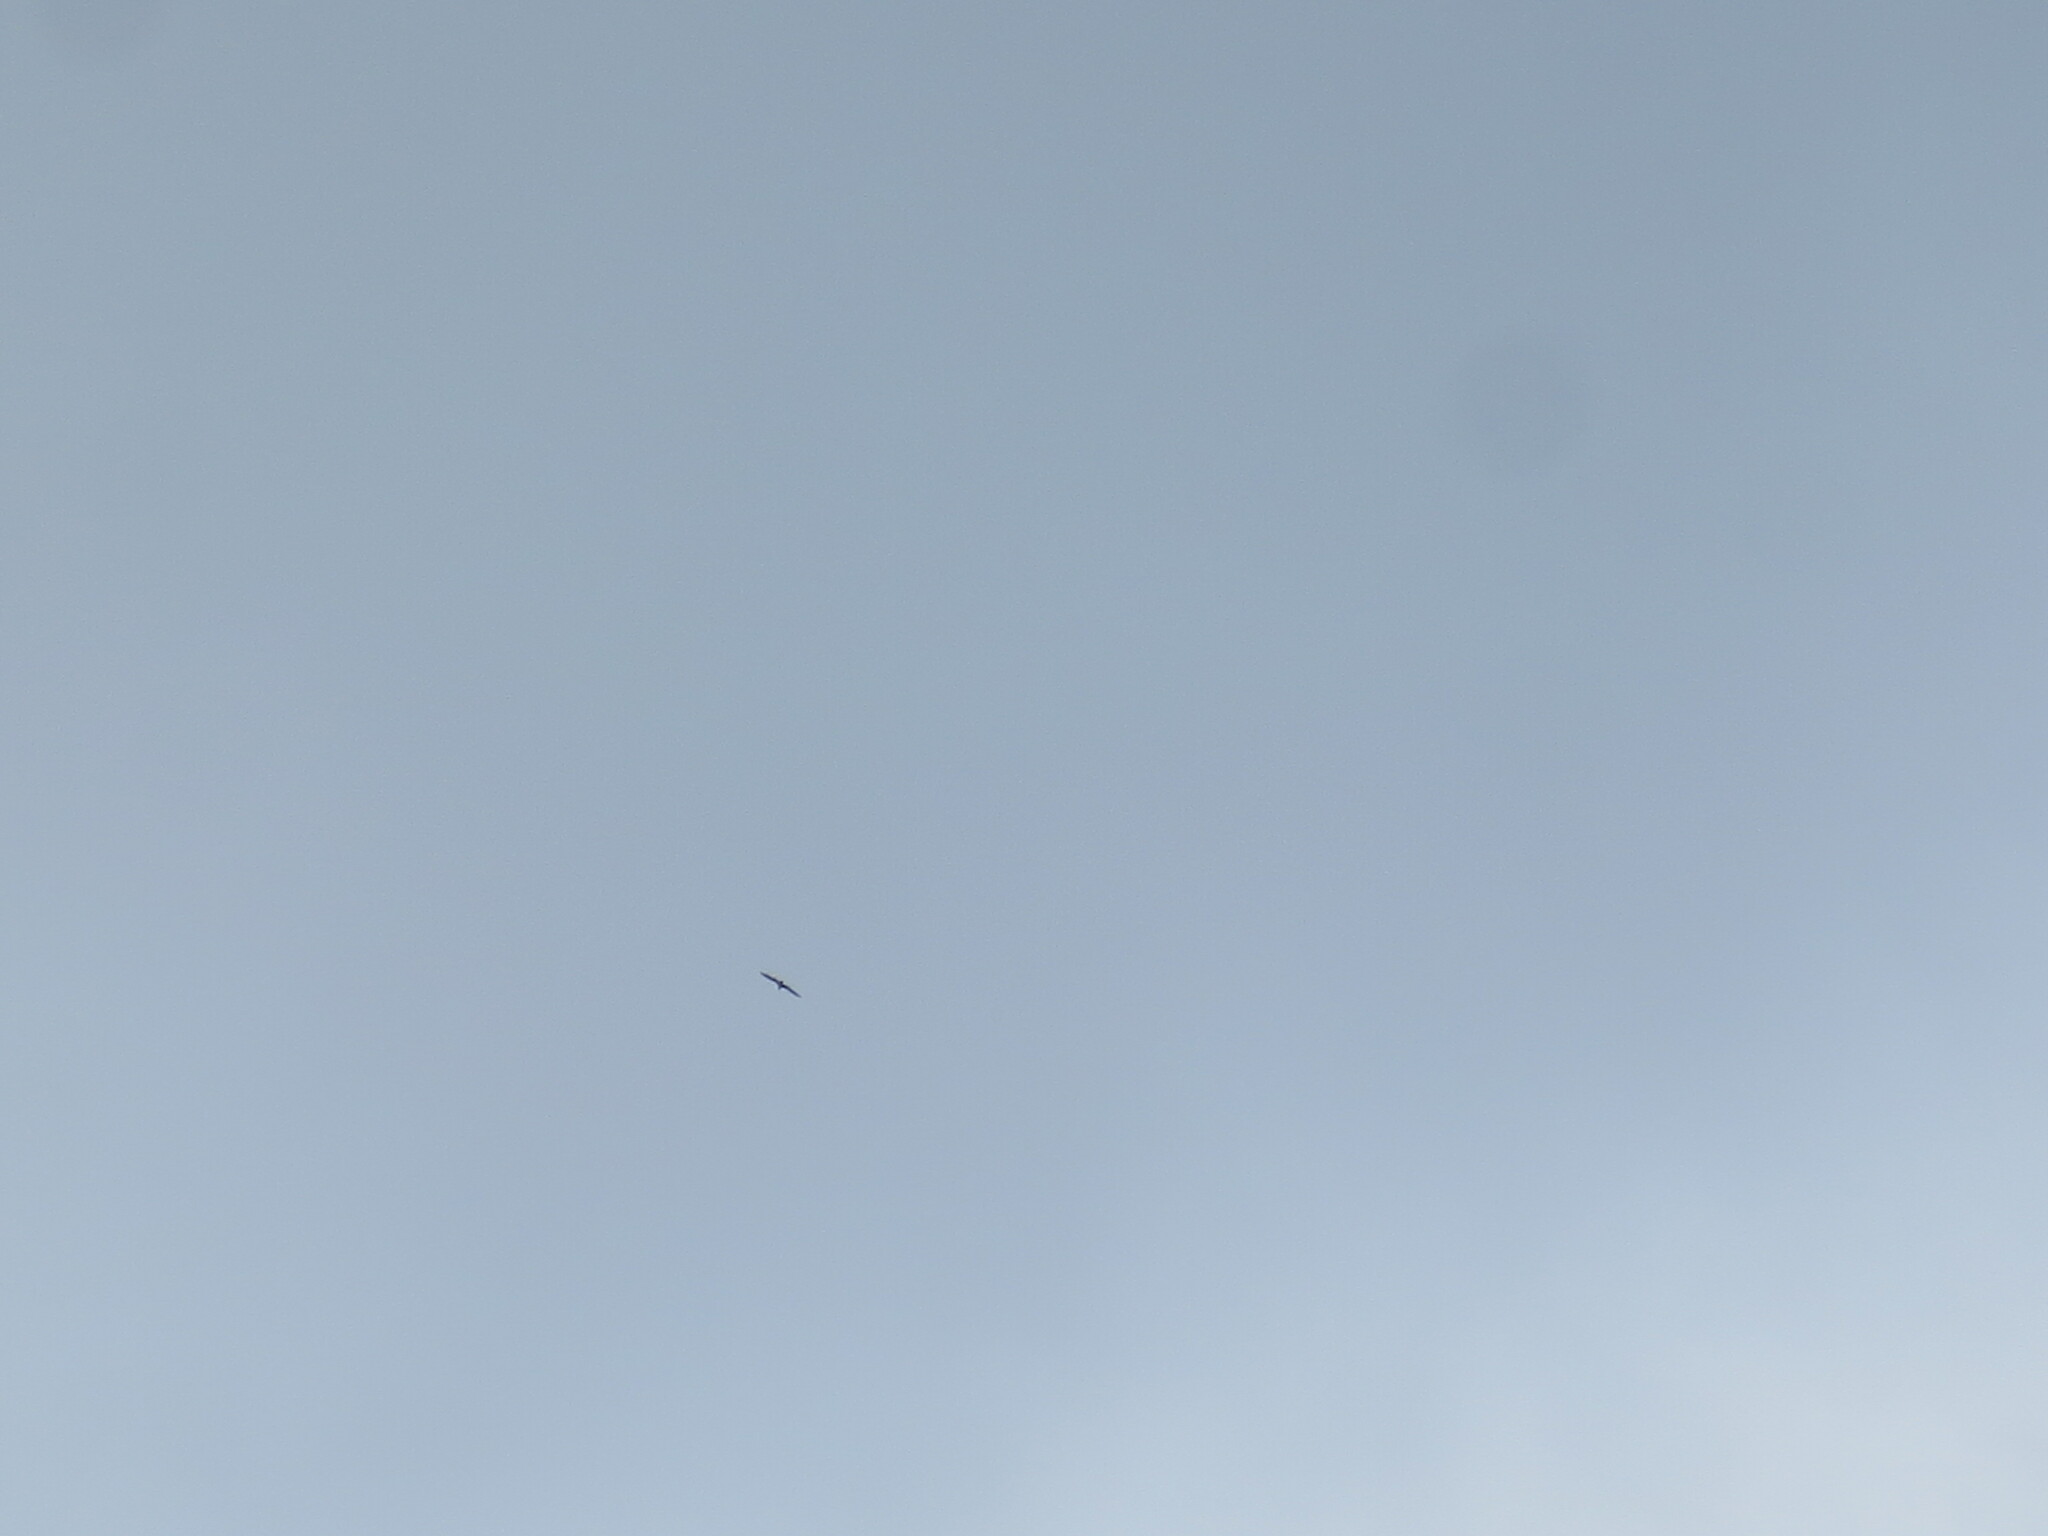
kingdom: Animalia
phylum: Chordata
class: Aves
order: Ciconiiformes
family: Ciconiidae
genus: Mycteria
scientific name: Mycteria americana
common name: Wood stork
